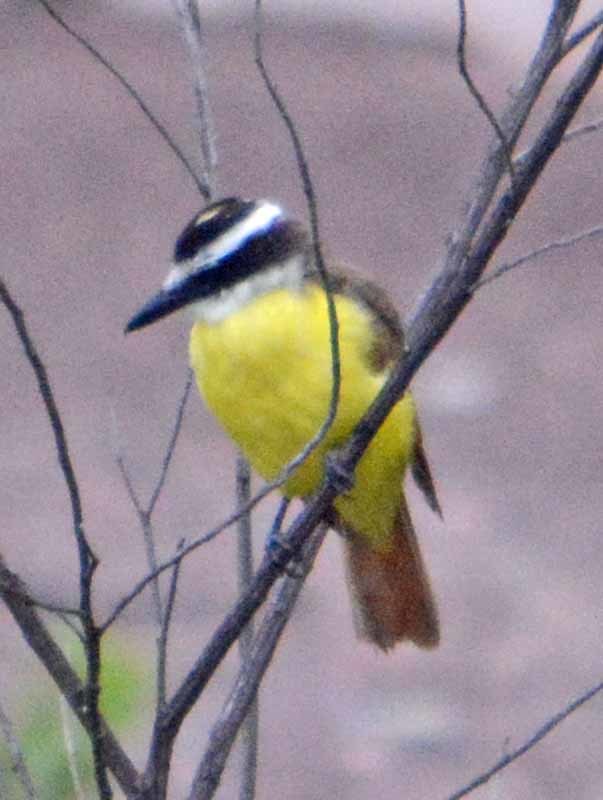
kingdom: Animalia
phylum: Chordata
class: Aves
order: Passeriformes
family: Tyrannidae
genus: Pitangus
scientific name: Pitangus sulphuratus
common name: Great kiskadee
